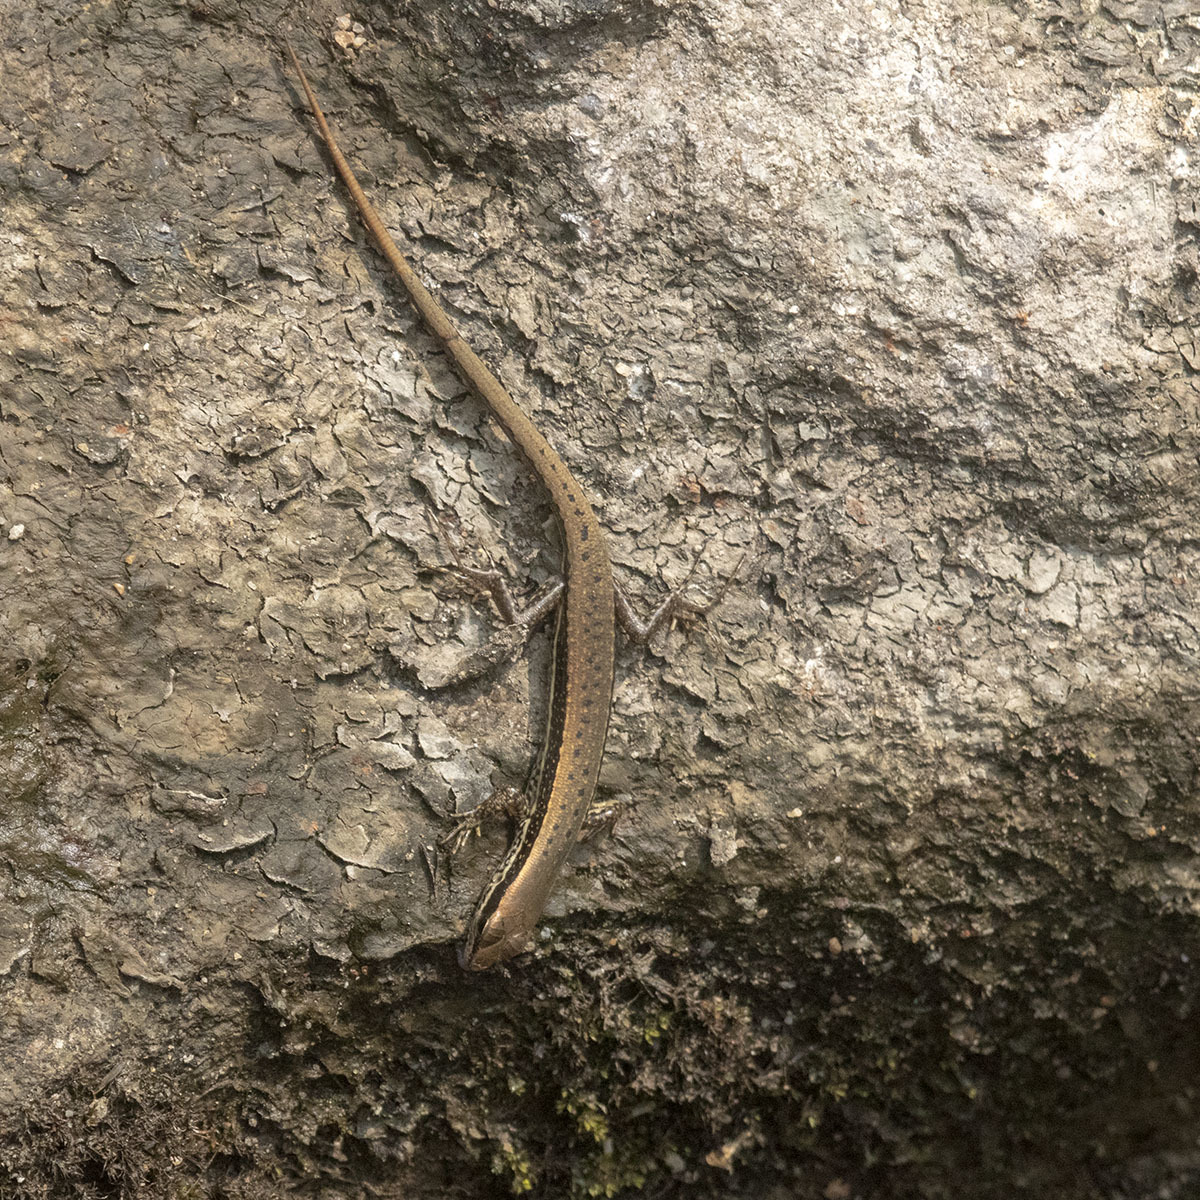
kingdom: Animalia
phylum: Chordata
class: Squamata
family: Scincidae
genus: Sphenomorphus
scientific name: Sphenomorphus maculatus
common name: Maculated forest skink
